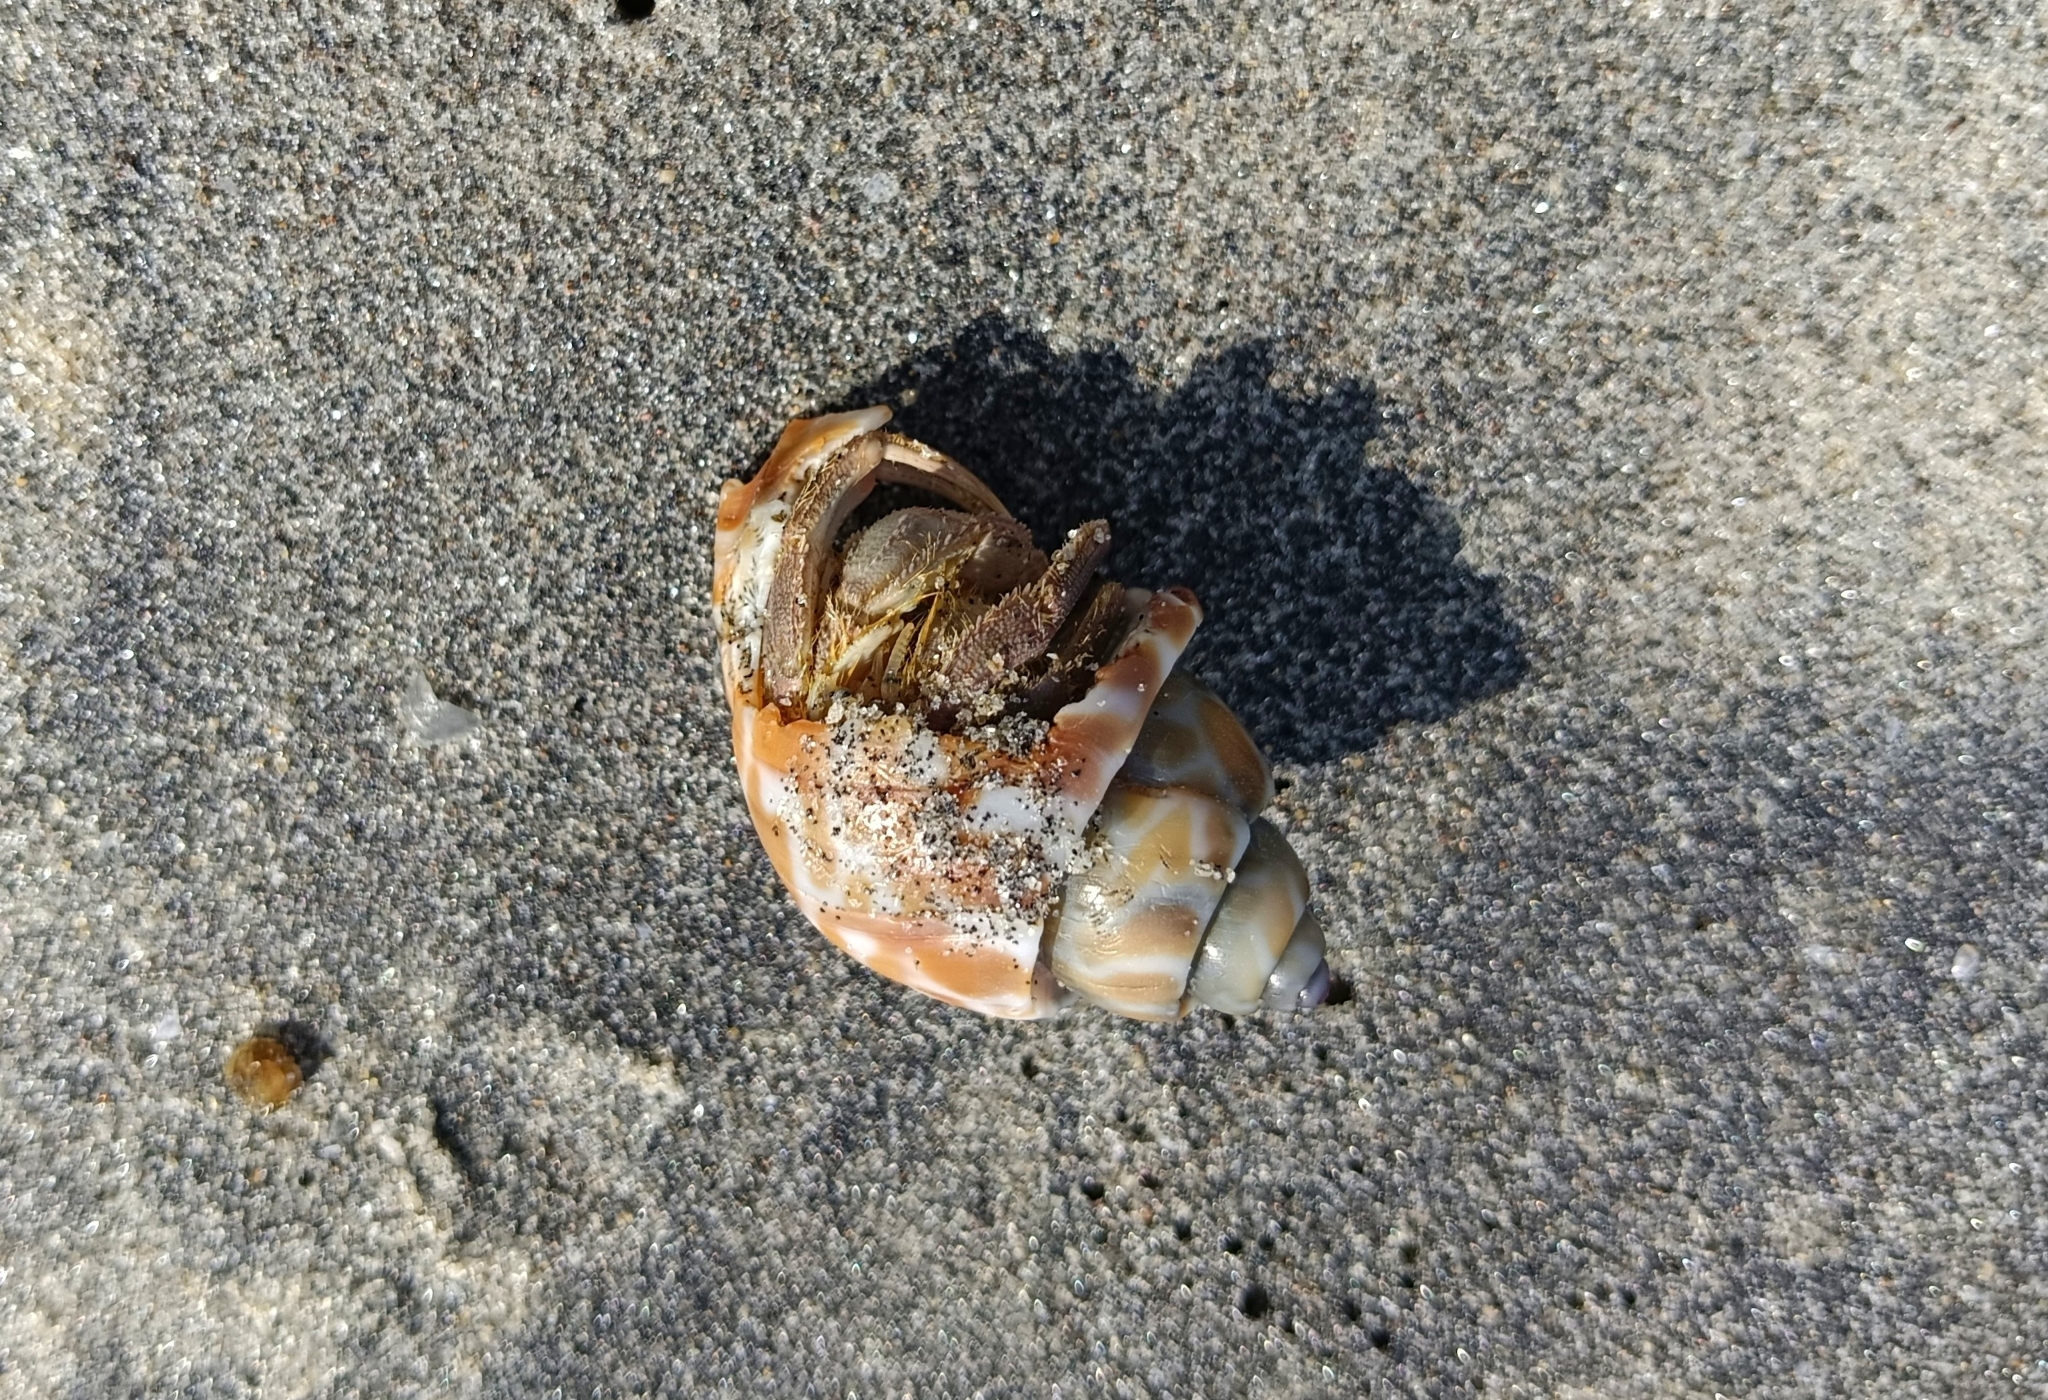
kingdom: Animalia
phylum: Mollusca
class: Gastropoda
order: Neogastropoda
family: Babyloniidae
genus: Babylonia
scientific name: Babylonia spirata
